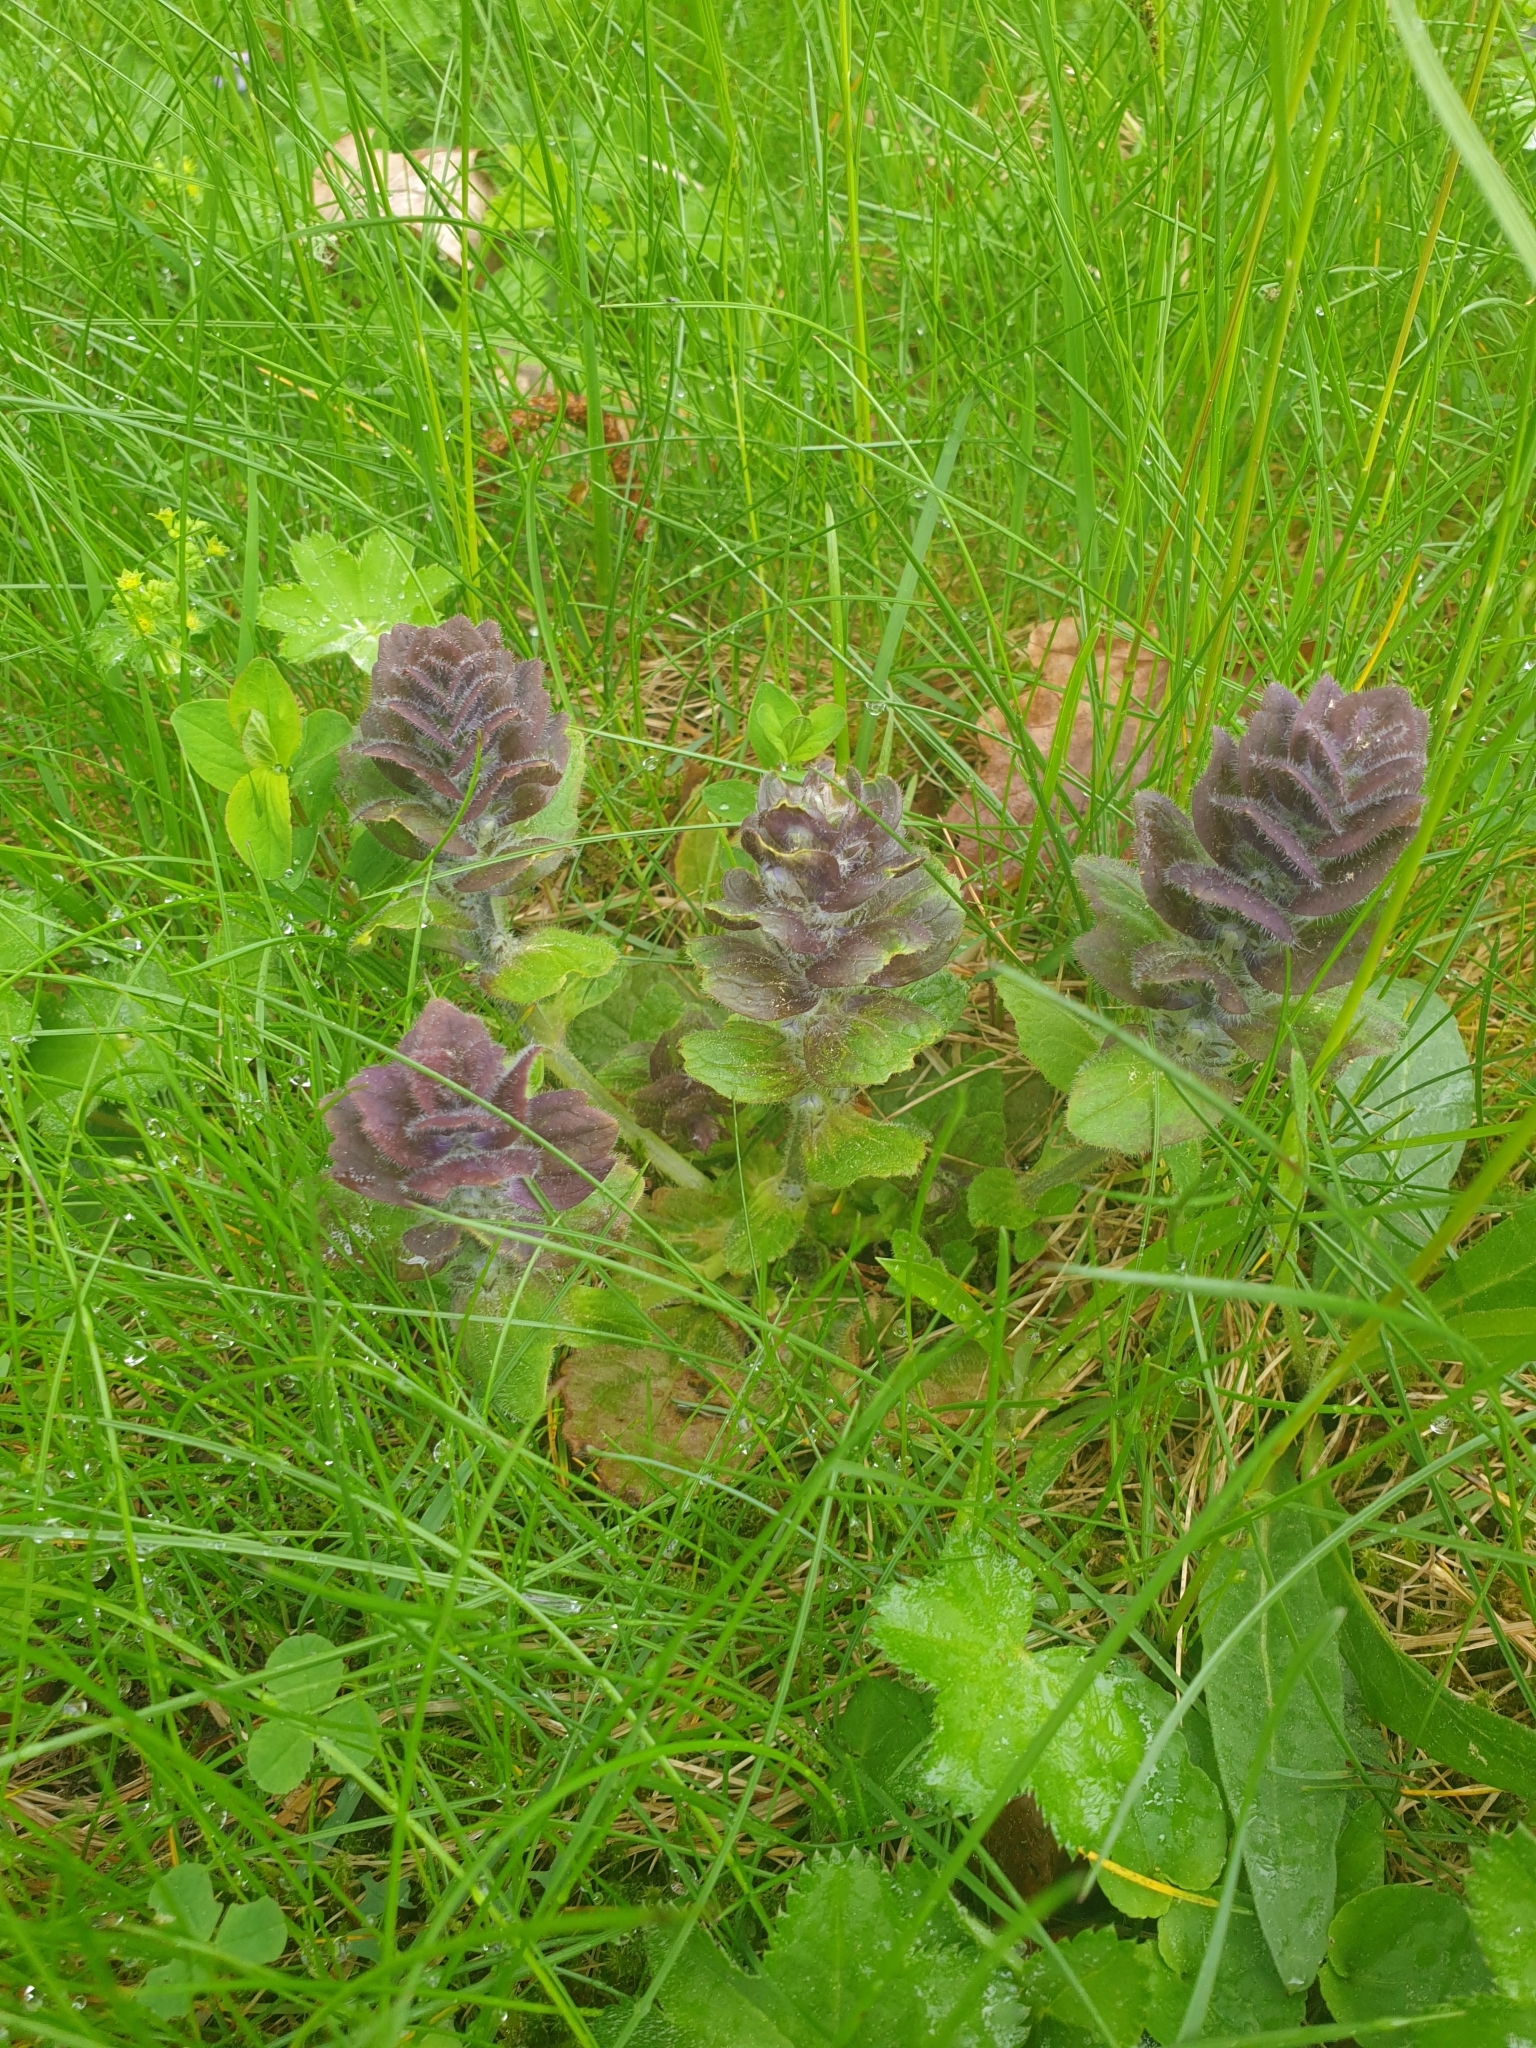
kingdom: Plantae
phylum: Tracheophyta
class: Magnoliopsida
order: Lamiales
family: Lamiaceae
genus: Ajuga
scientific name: Ajuga pyramidalis
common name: Pyramid bugle
